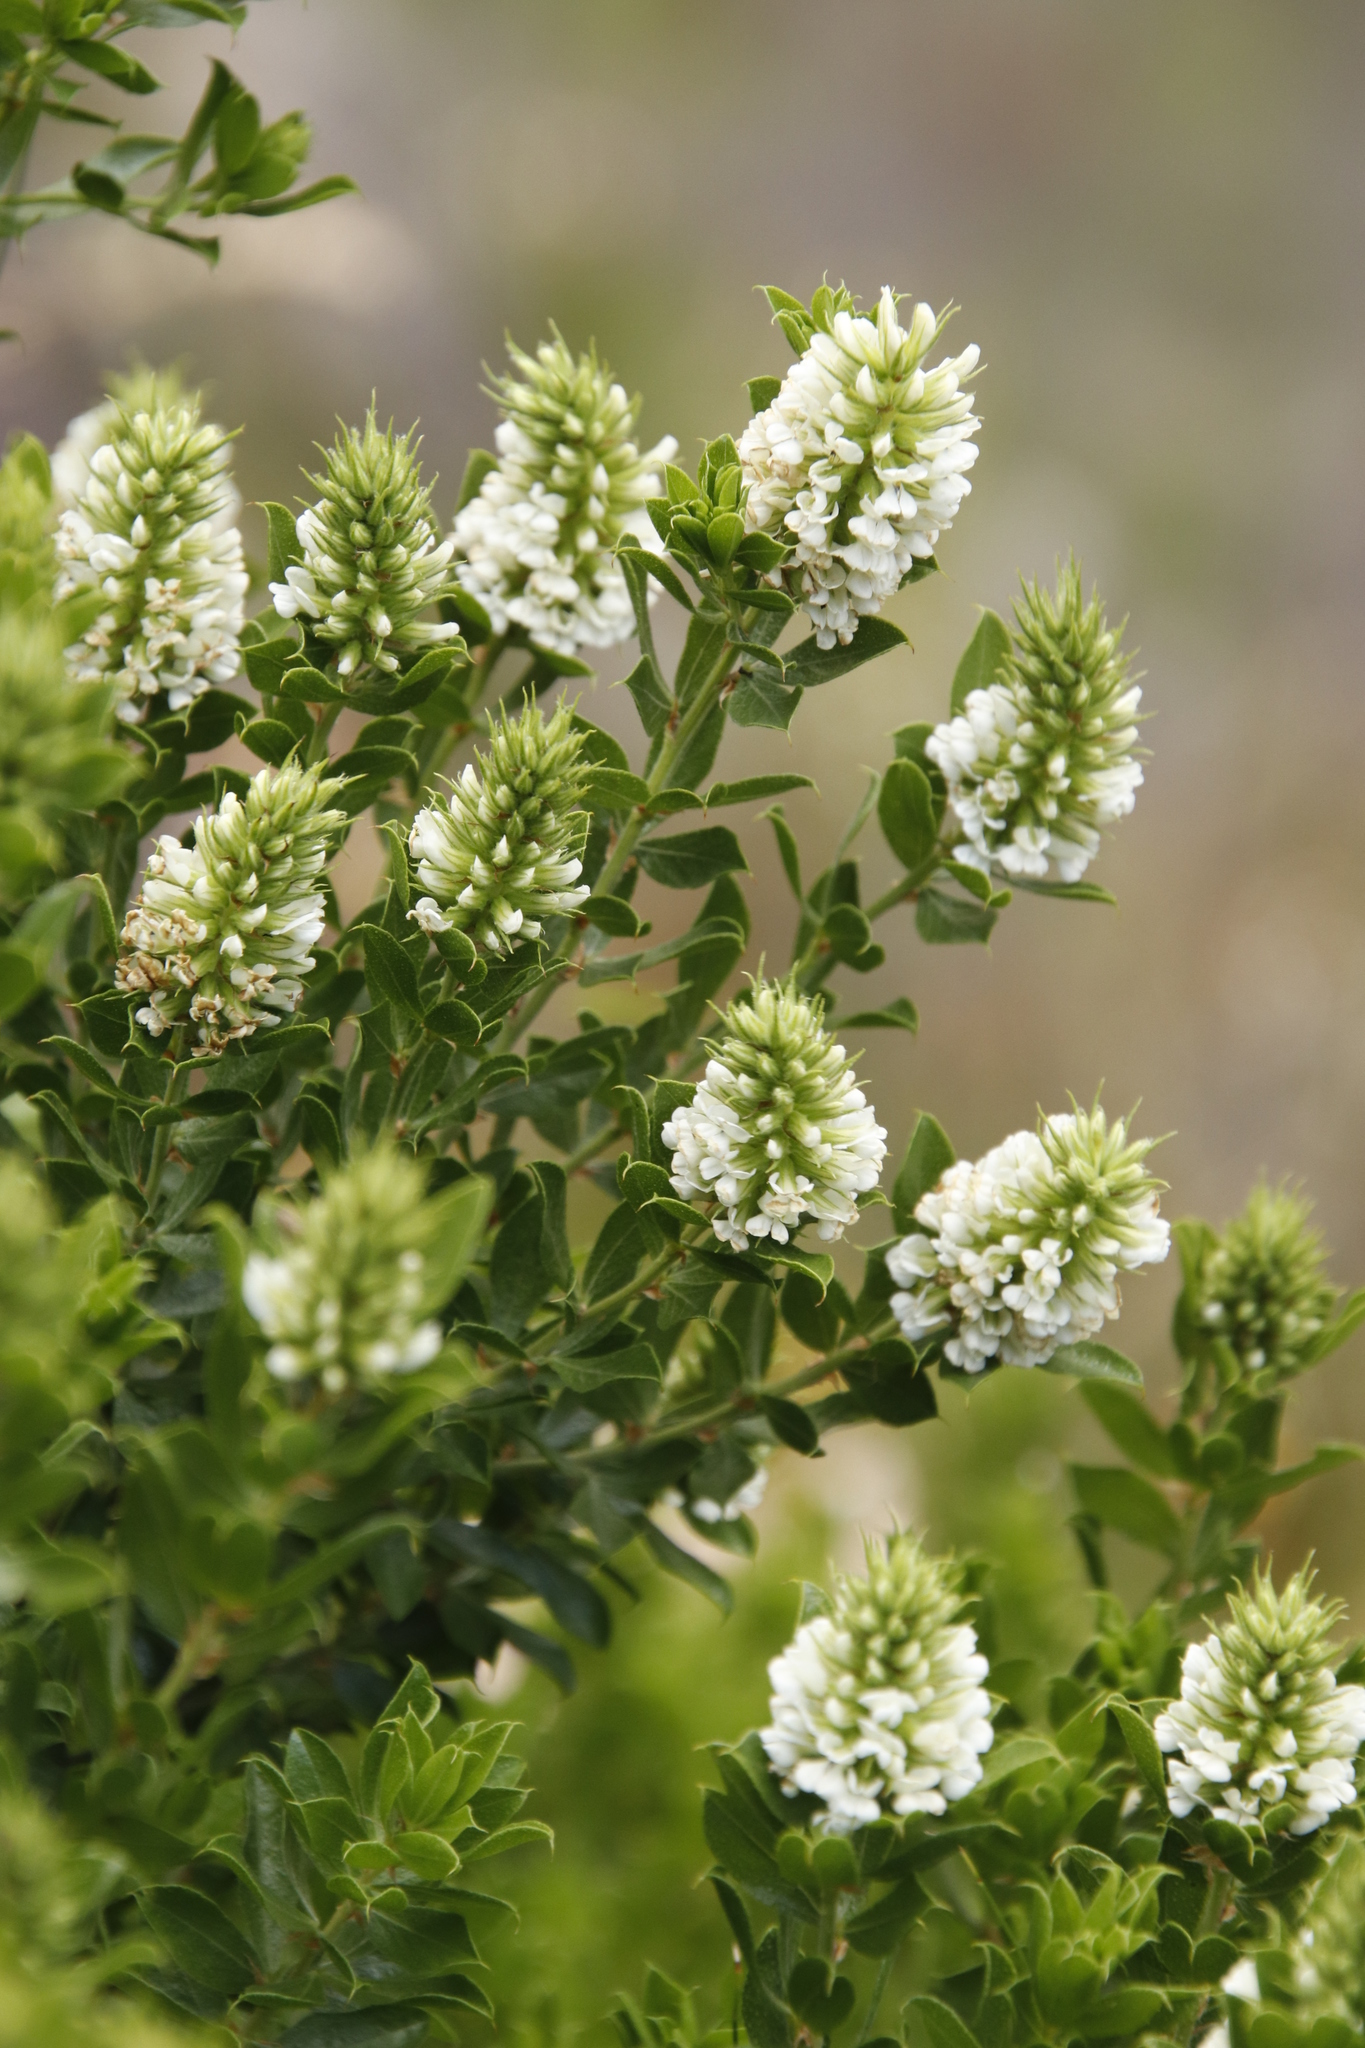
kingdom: Plantae
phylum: Tracheophyta
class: Magnoliopsida
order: Fabales
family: Fabaceae
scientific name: Fabaceae
